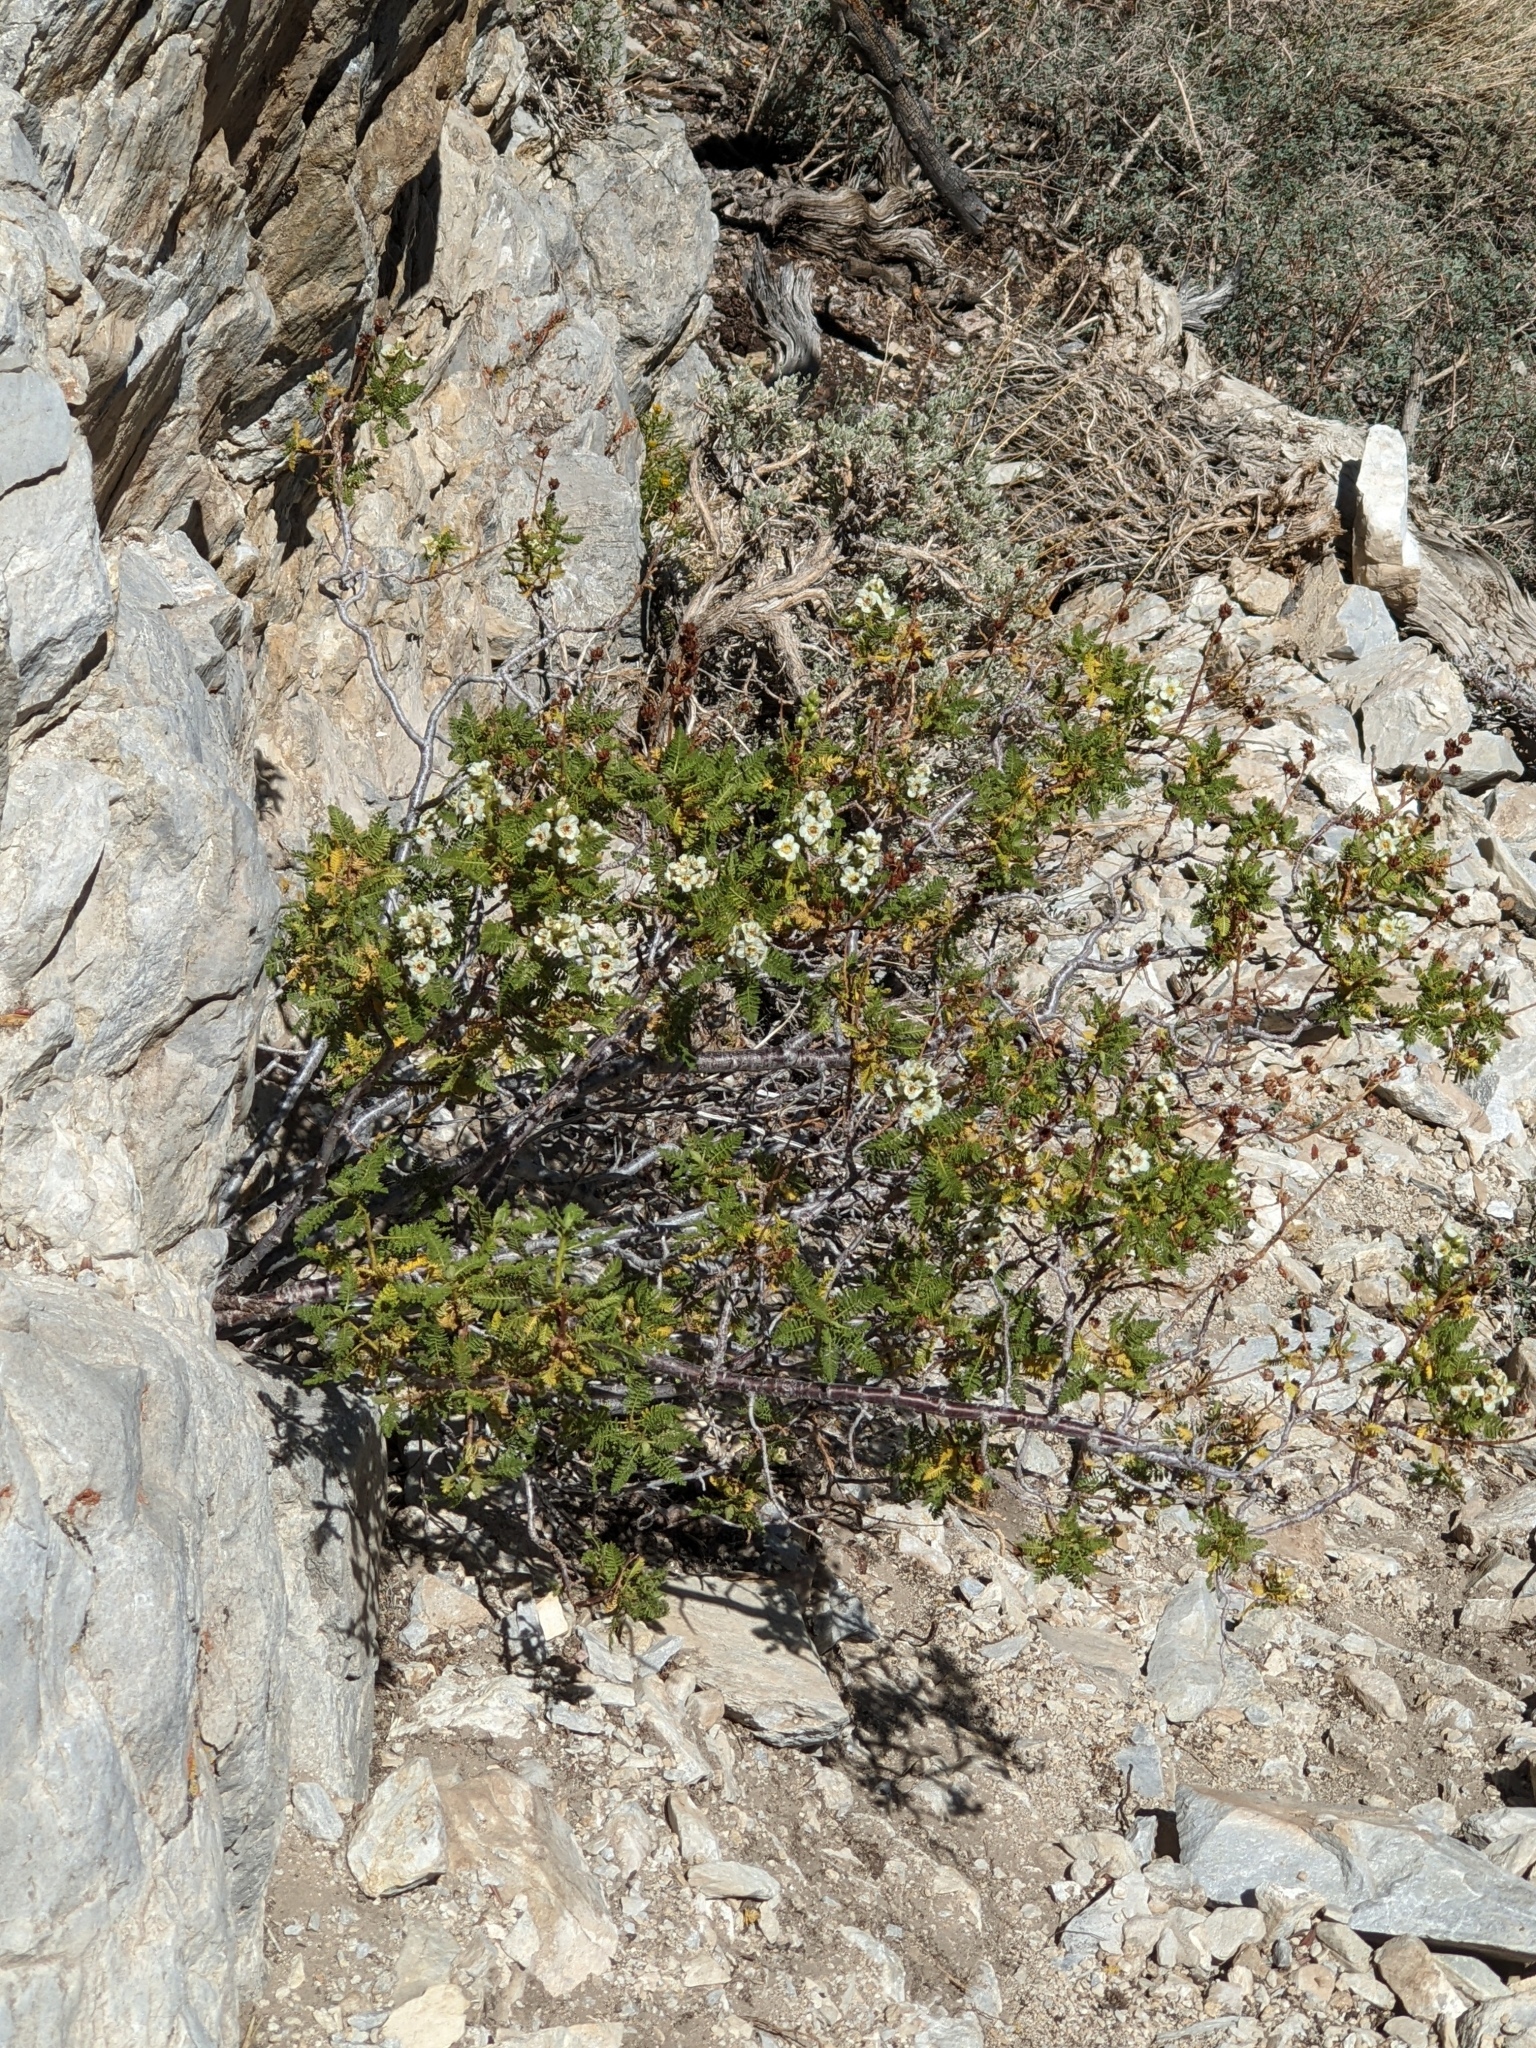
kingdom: Plantae
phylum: Tracheophyta
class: Magnoliopsida
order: Rosales
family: Rosaceae
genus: Chamaebatiaria
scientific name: Chamaebatiaria millefolium
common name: Fernbush
